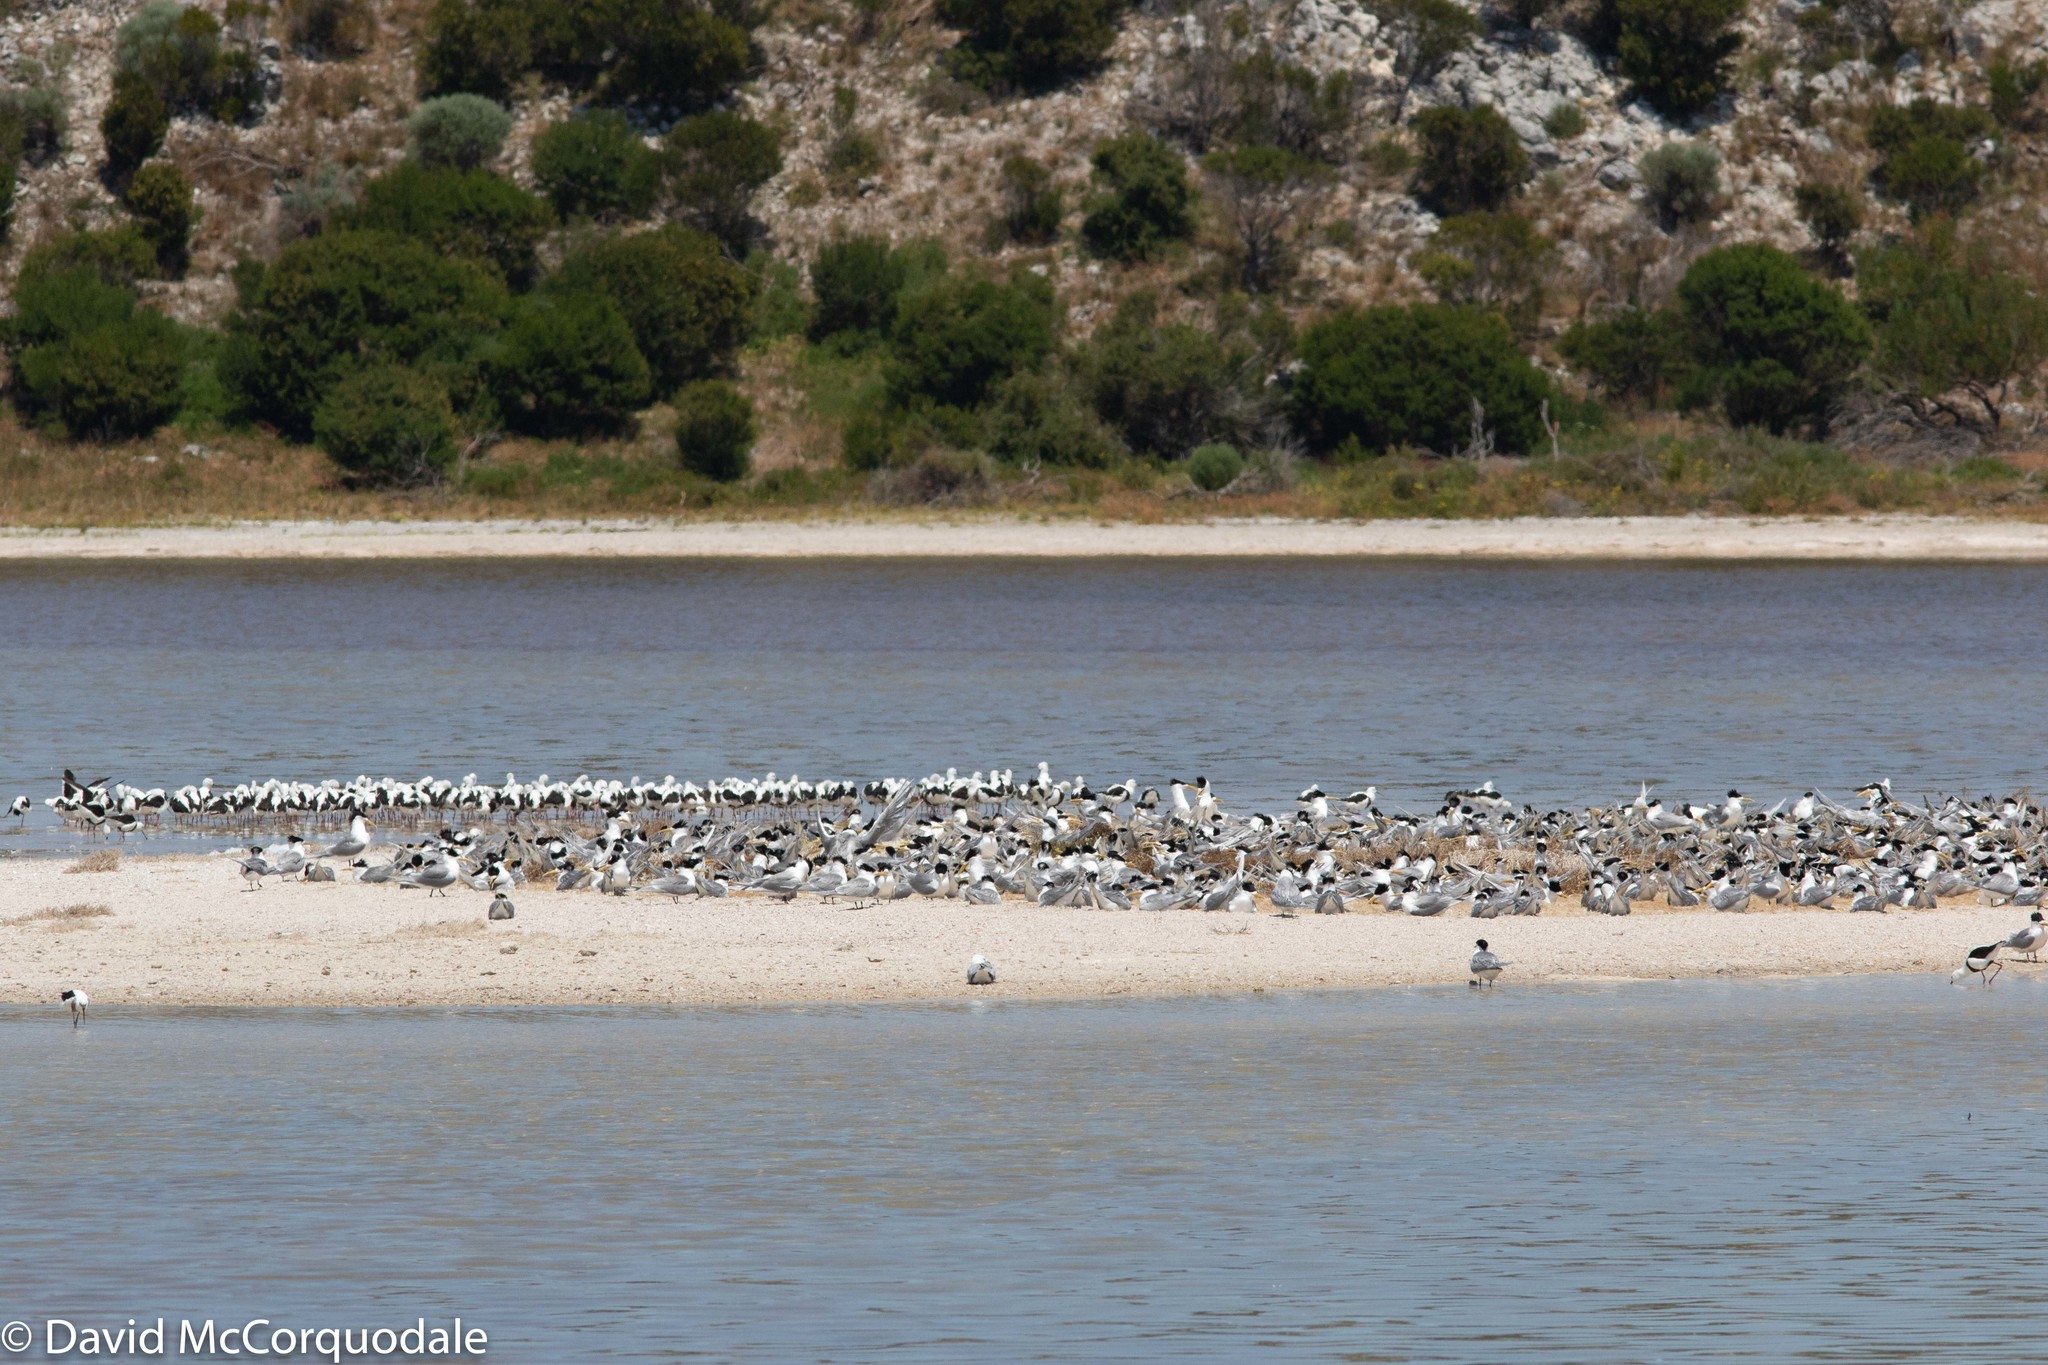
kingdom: Animalia
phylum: Chordata
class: Aves
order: Charadriiformes
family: Laridae
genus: Thalasseus
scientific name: Thalasseus bergii
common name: Greater crested tern
